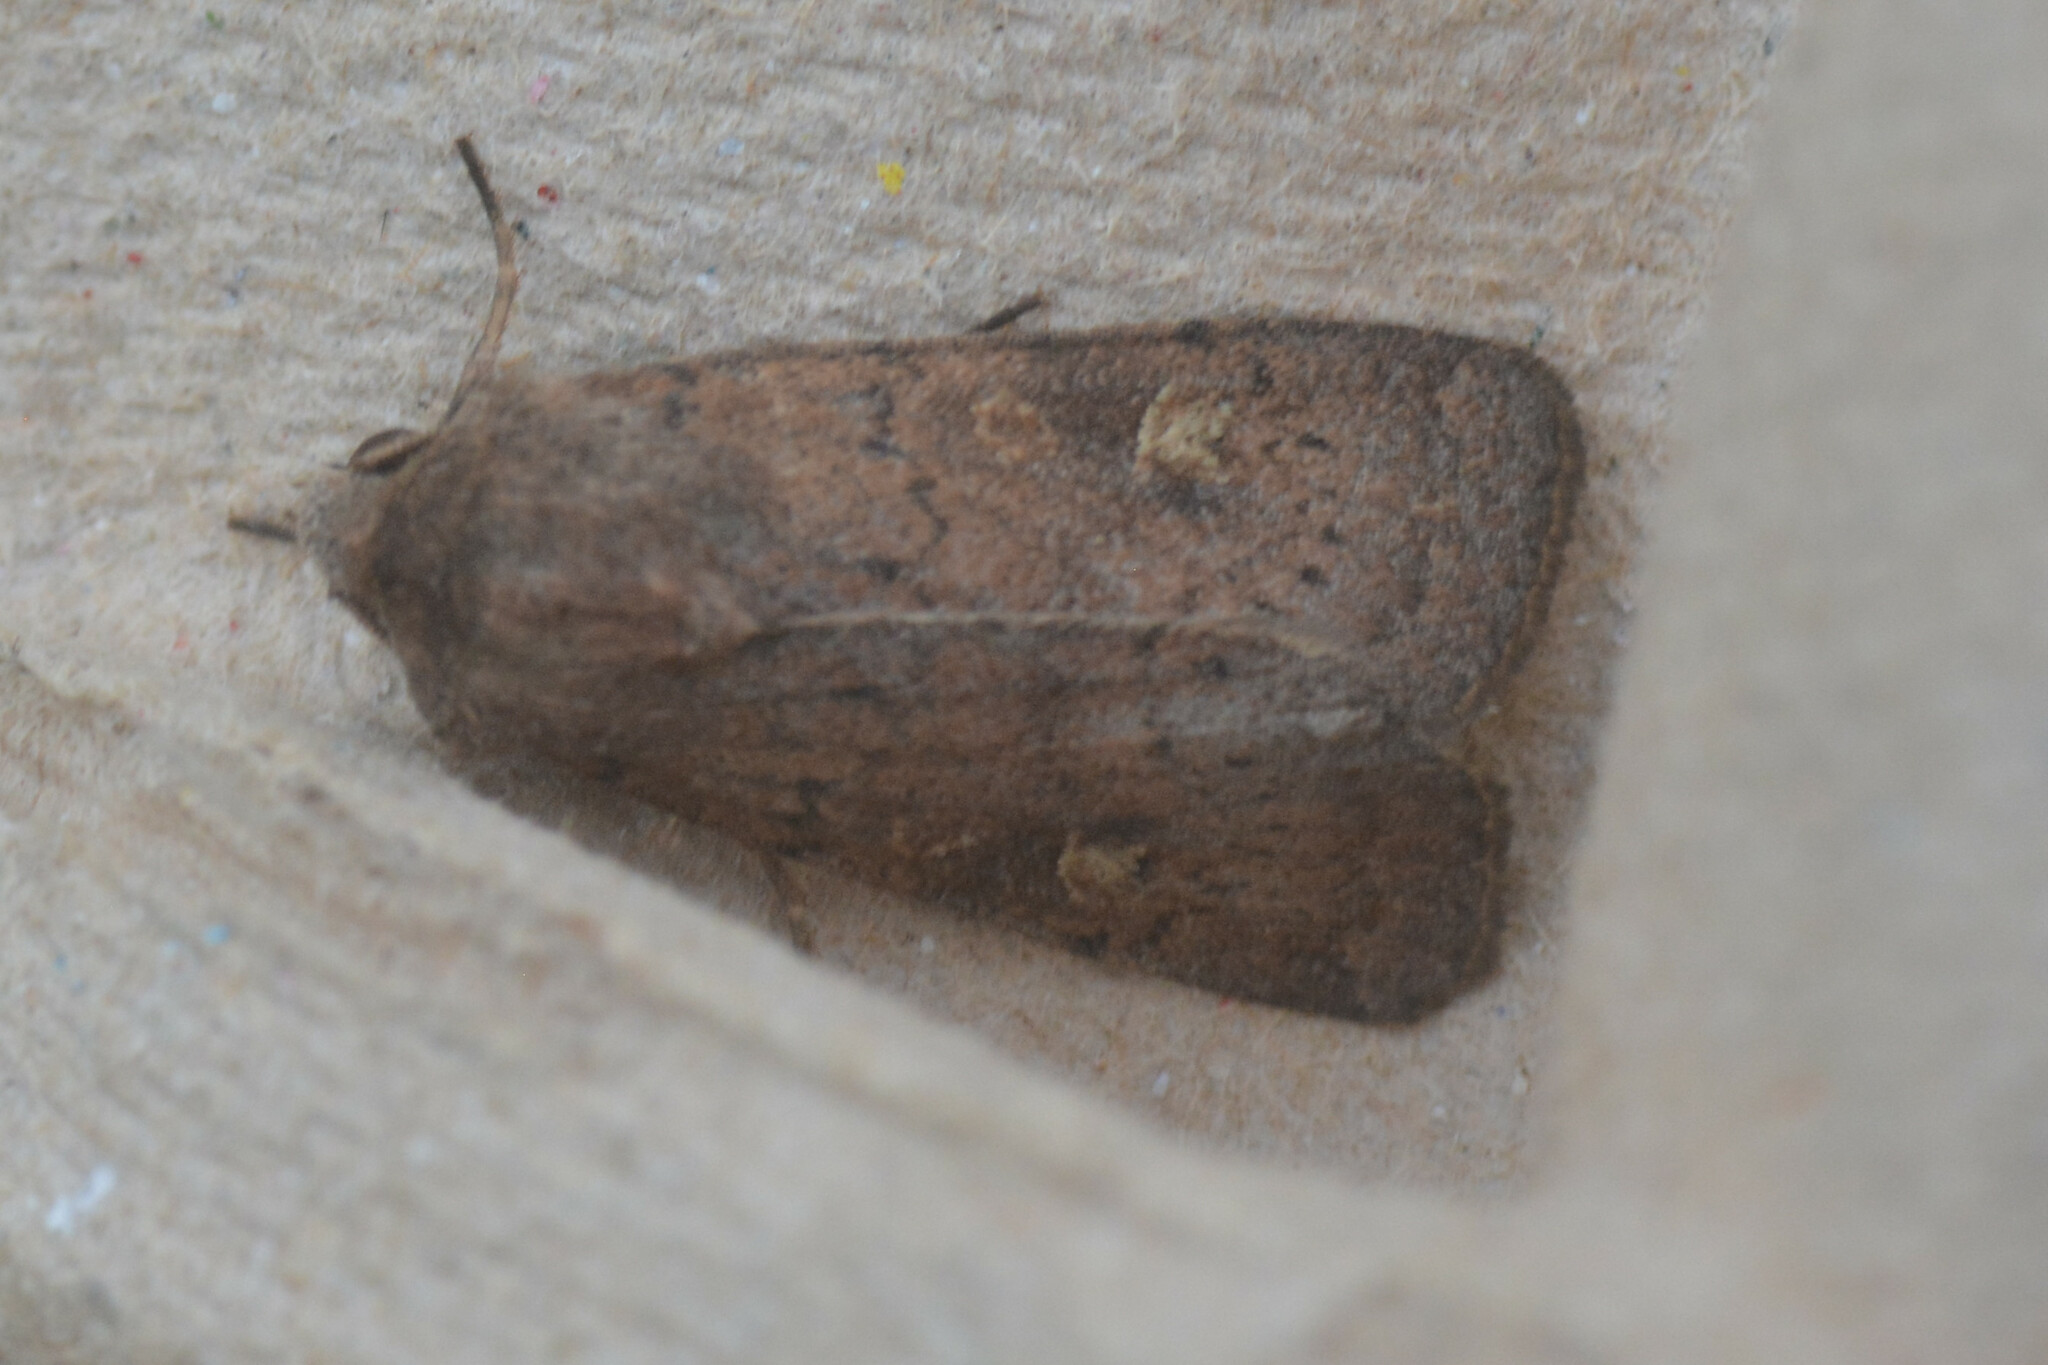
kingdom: Animalia
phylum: Arthropoda
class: Insecta
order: Lepidoptera
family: Noctuidae
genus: Xestia
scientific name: Xestia xanthographa
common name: Square-spot rustic
